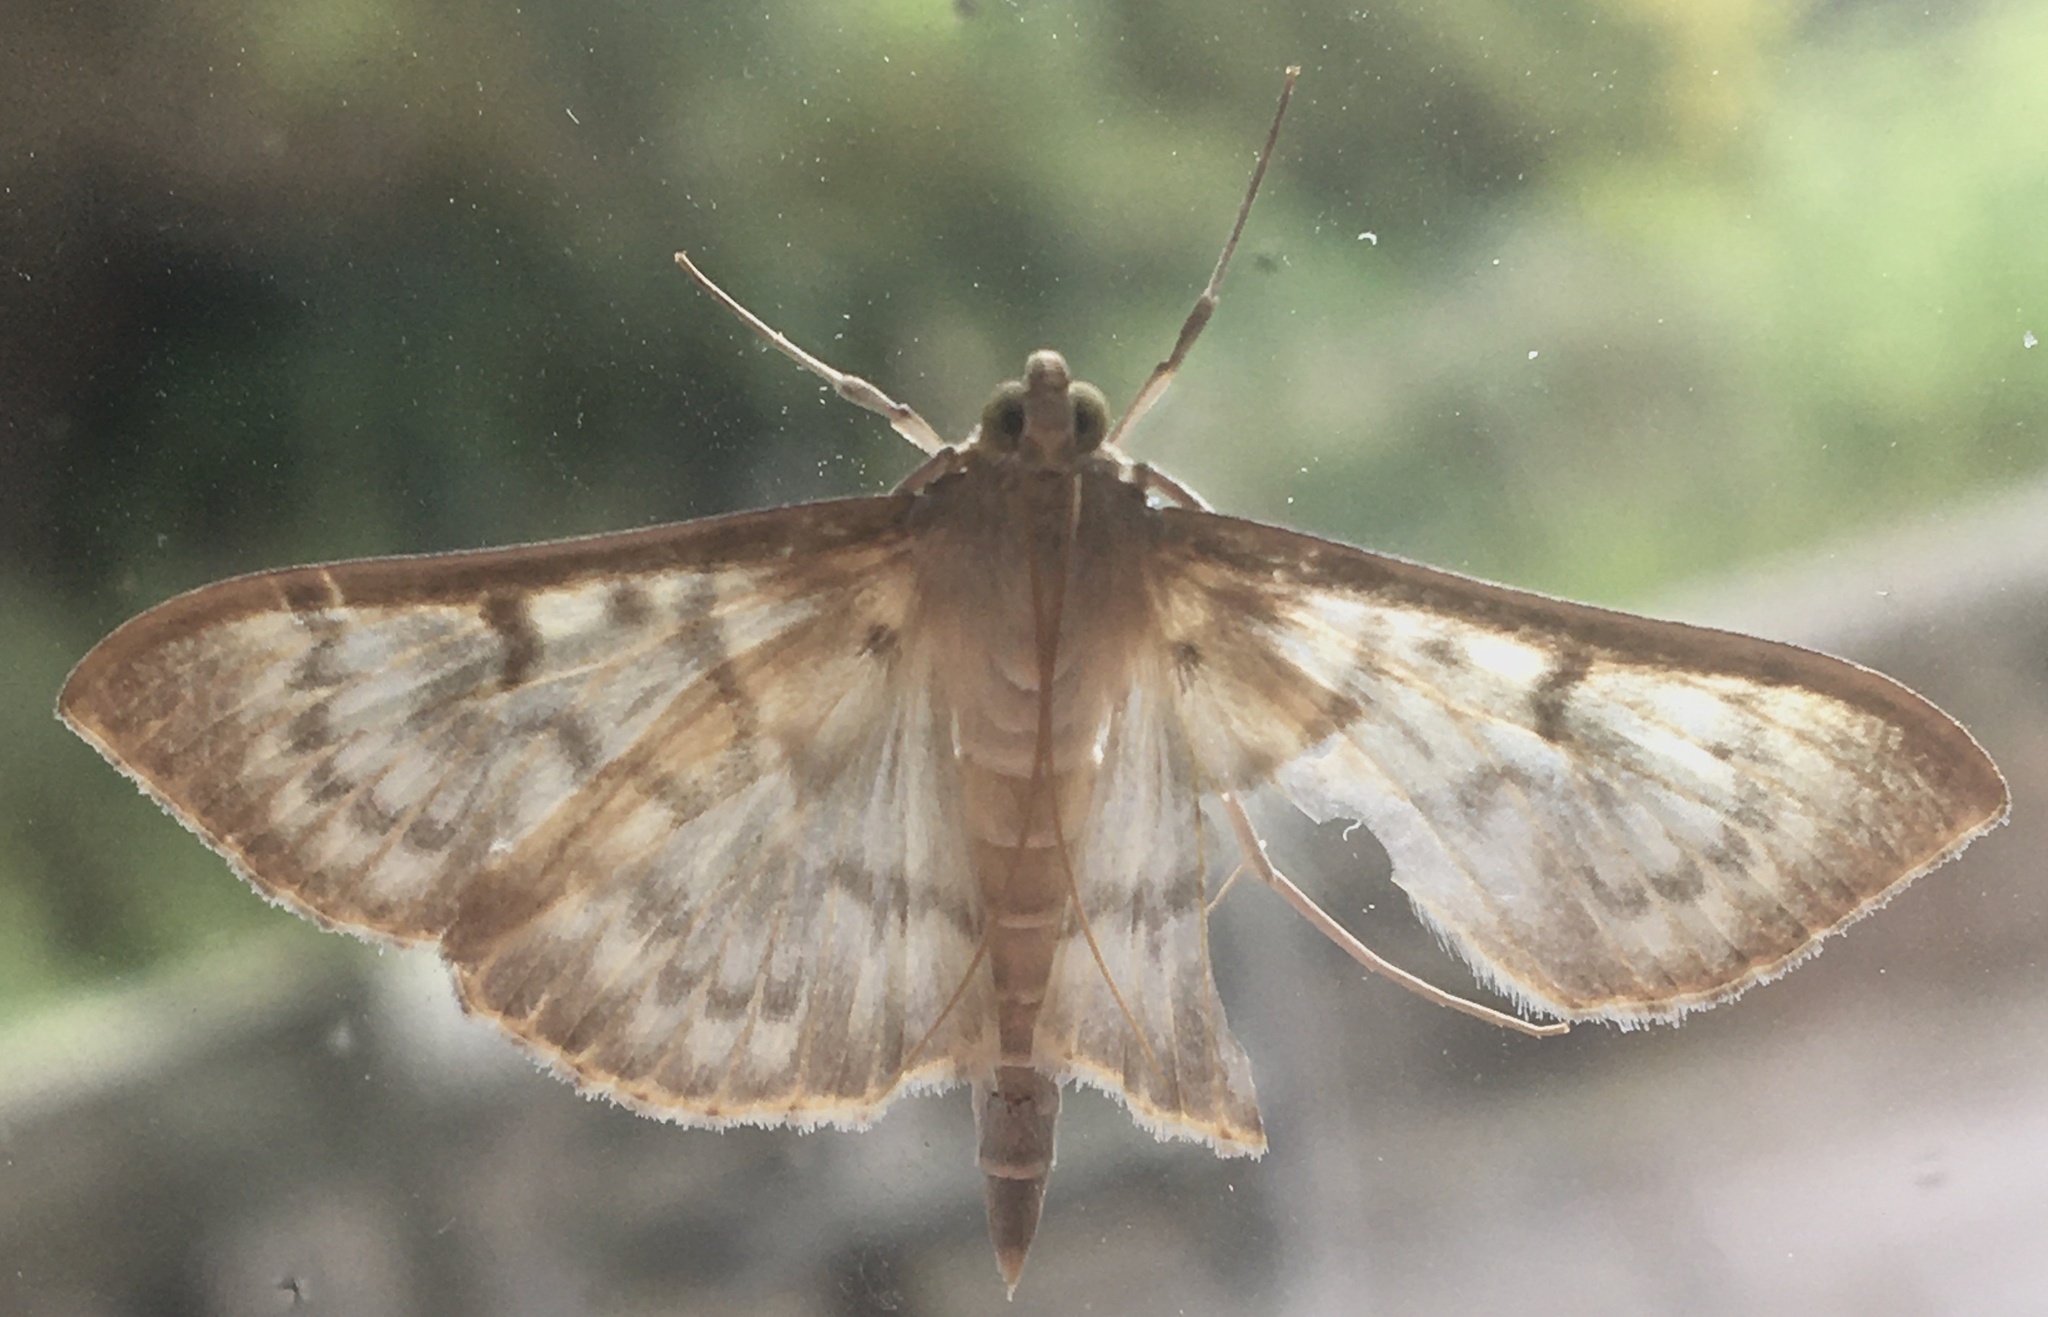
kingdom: Animalia
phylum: Arthropoda
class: Insecta
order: Lepidoptera
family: Crambidae
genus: Patania
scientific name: Patania ruralis
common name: Mother of pearl
